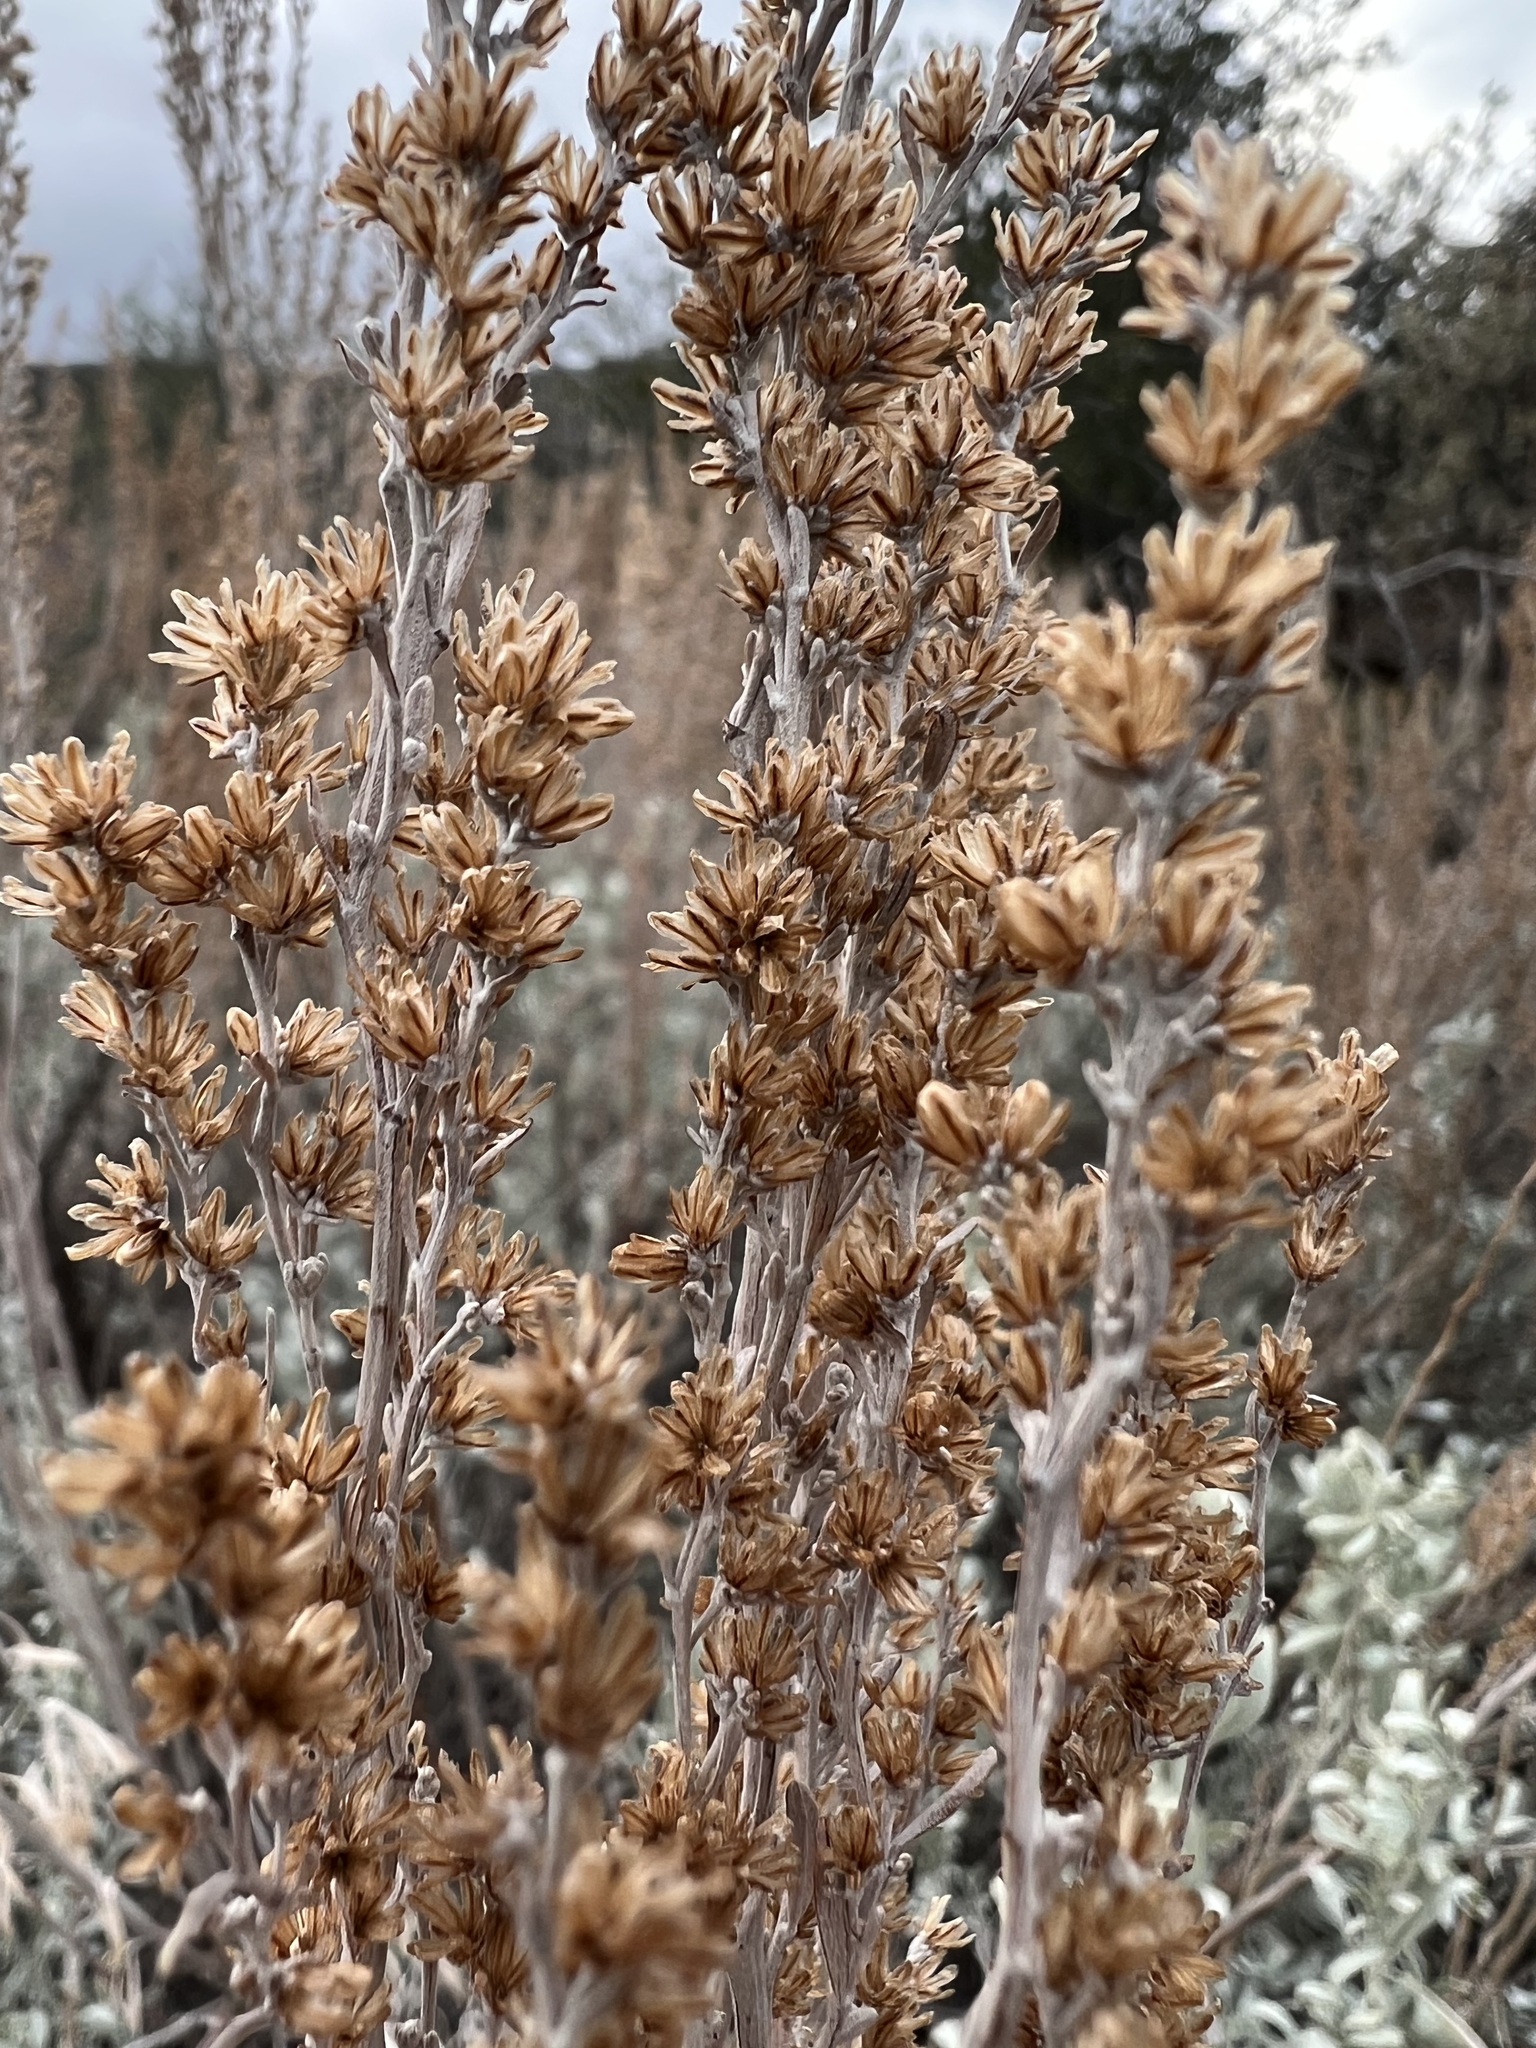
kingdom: Plantae
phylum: Tracheophyta
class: Magnoliopsida
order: Asterales
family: Asteraceae
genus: Artemisia
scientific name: Artemisia tridentata
